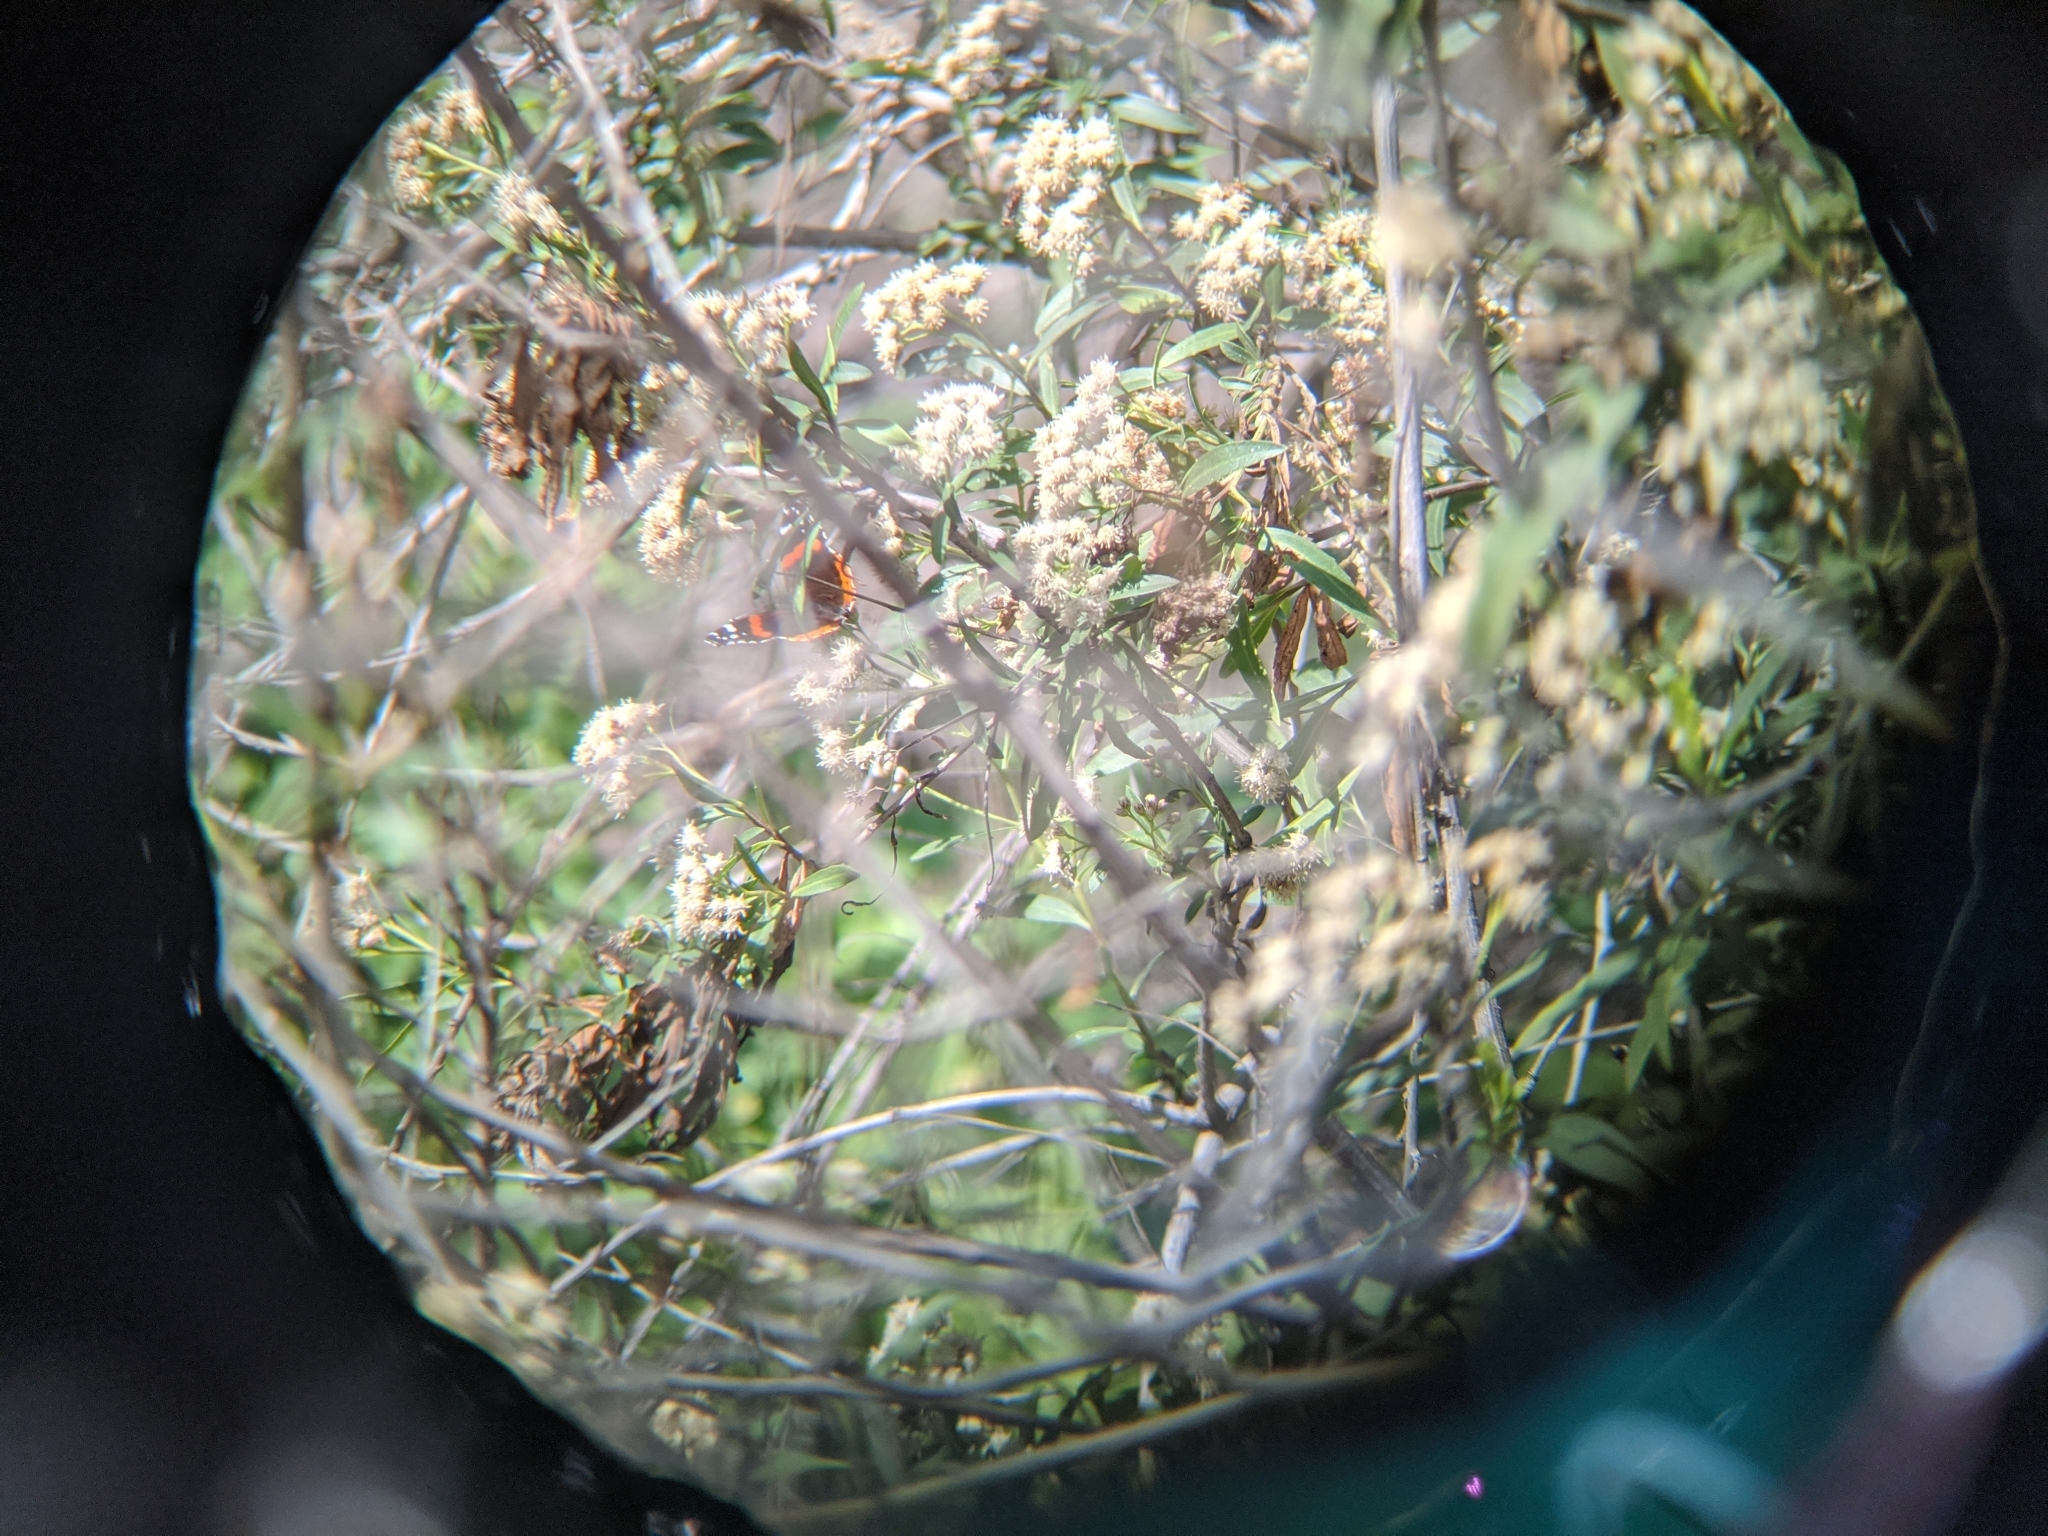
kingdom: Animalia
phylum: Arthropoda
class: Insecta
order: Lepidoptera
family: Nymphalidae
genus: Vanessa
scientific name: Vanessa atalanta
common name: Red admiral
